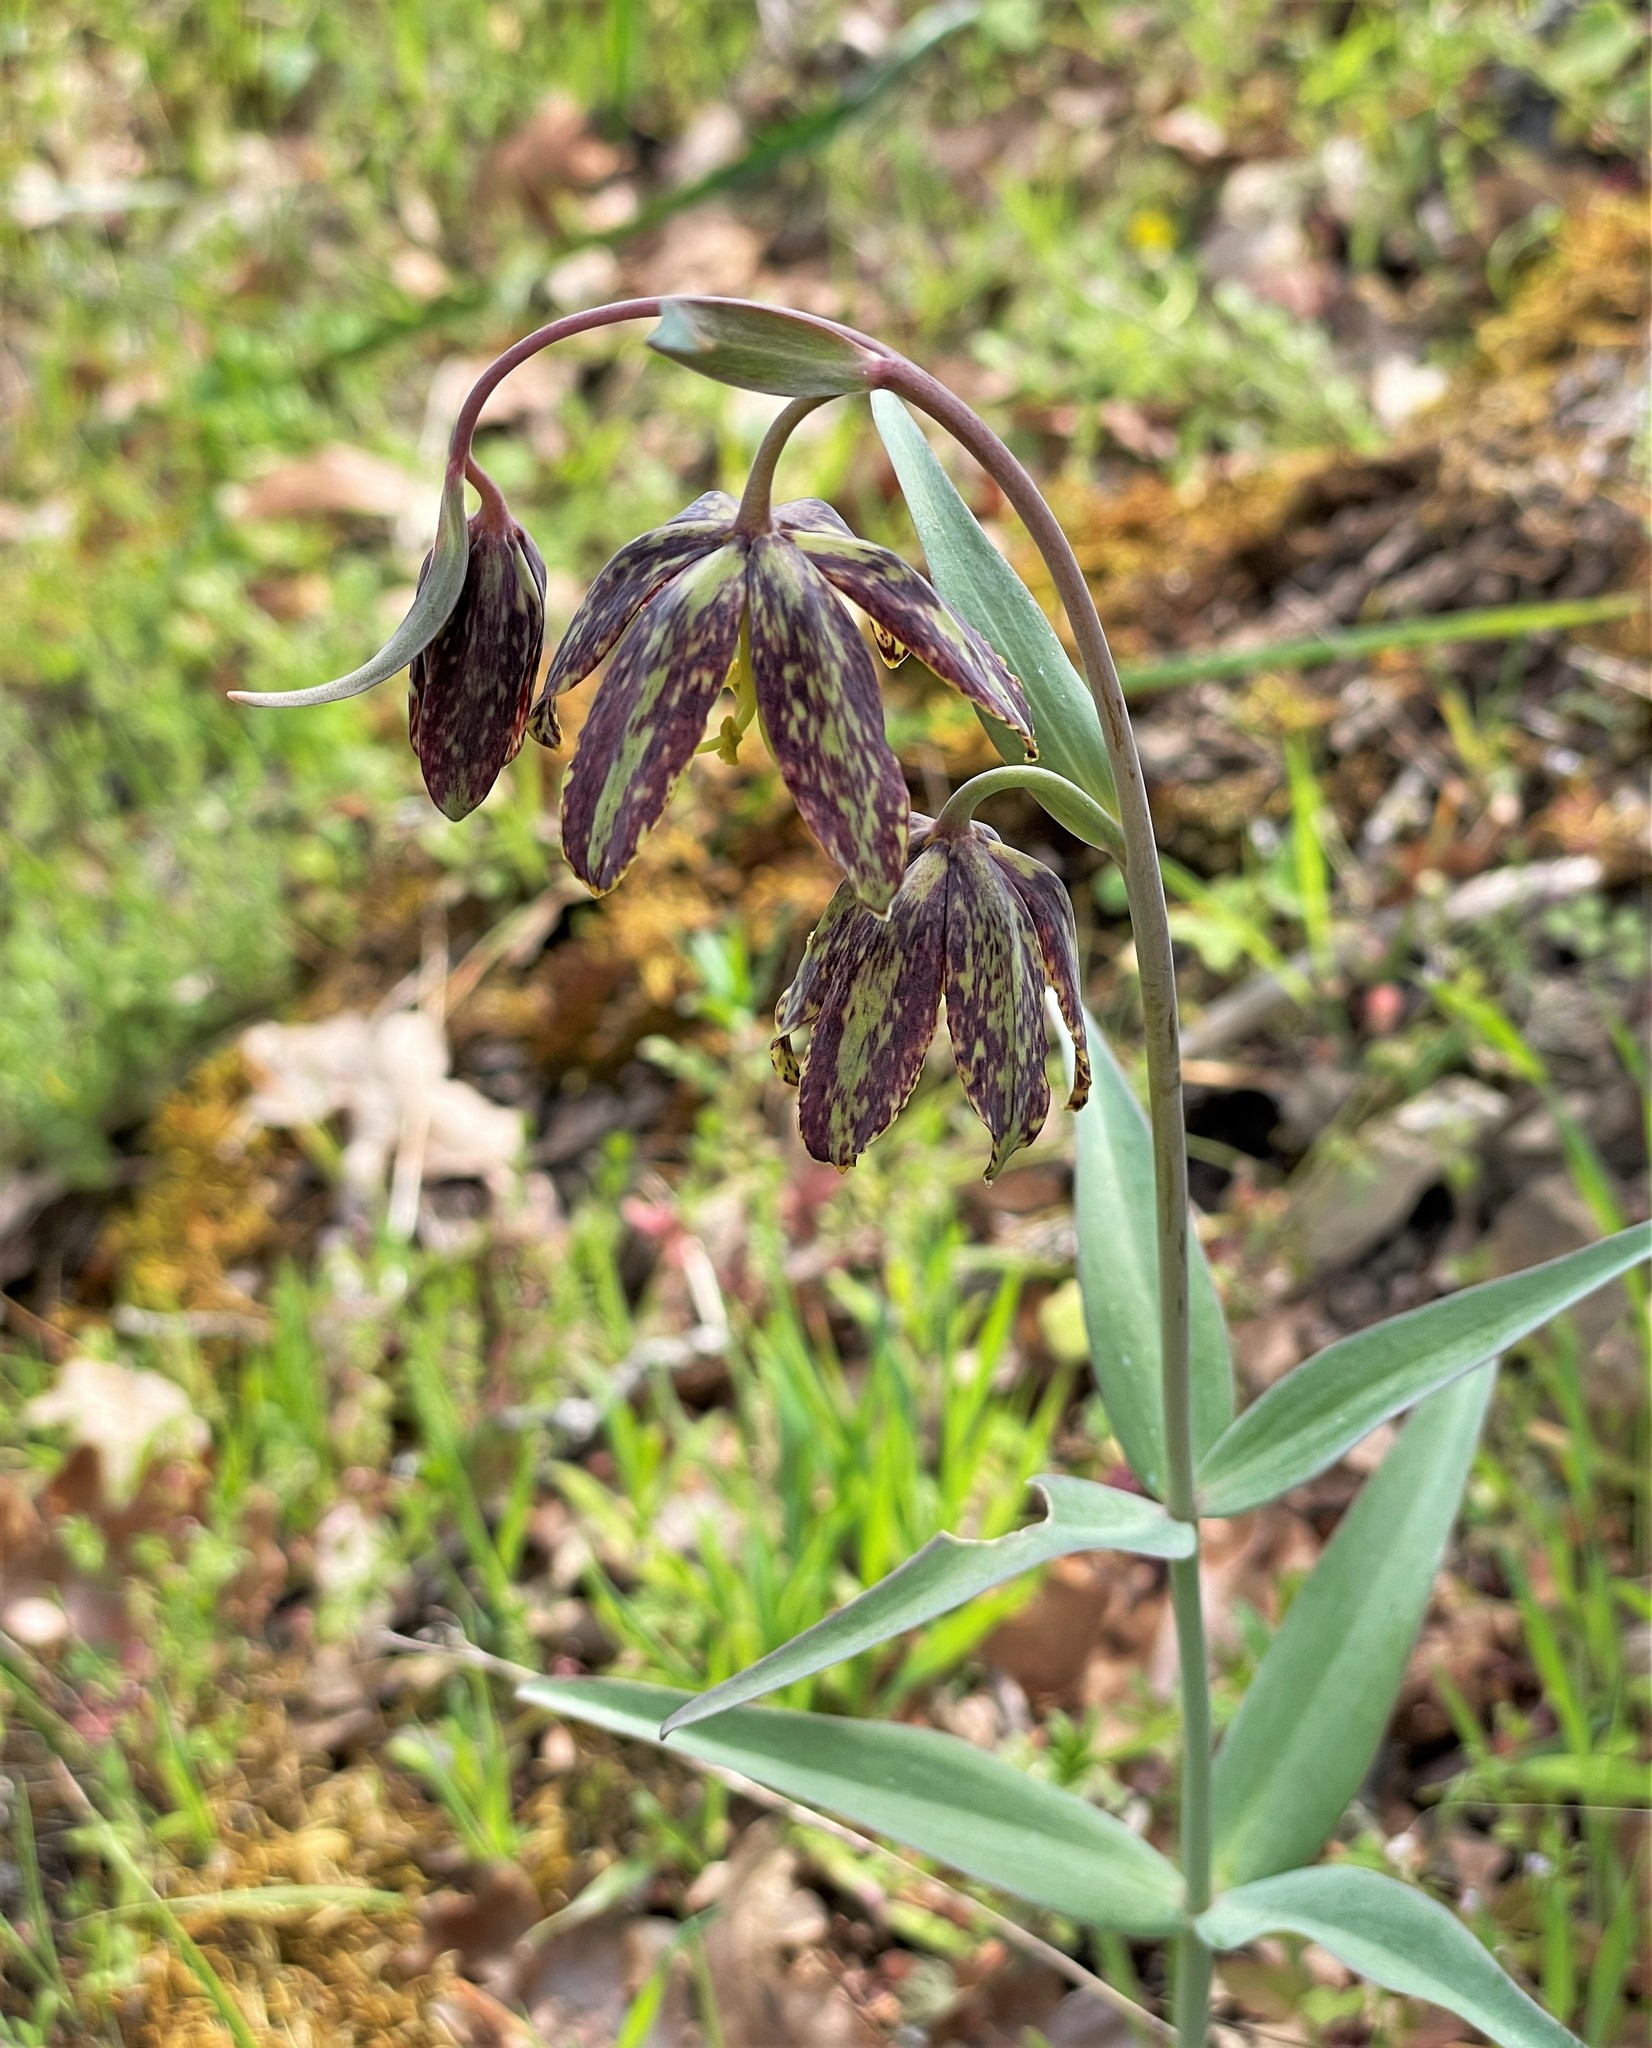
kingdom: Plantae
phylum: Tracheophyta
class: Liliopsida
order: Liliales
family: Liliaceae
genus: Fritillaria
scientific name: Fritillaria affinis
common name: Ojai fritillary
